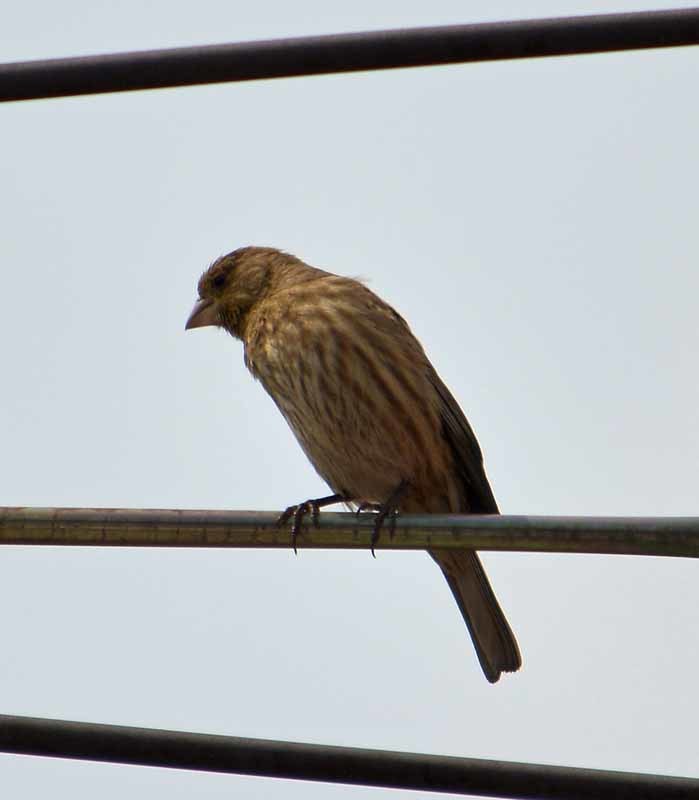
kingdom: Animalia
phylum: Chordata
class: Aves
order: Passeriformes
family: Fringillidae
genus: Haemorhous
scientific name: Haemorhous mexicanus
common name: House finch
